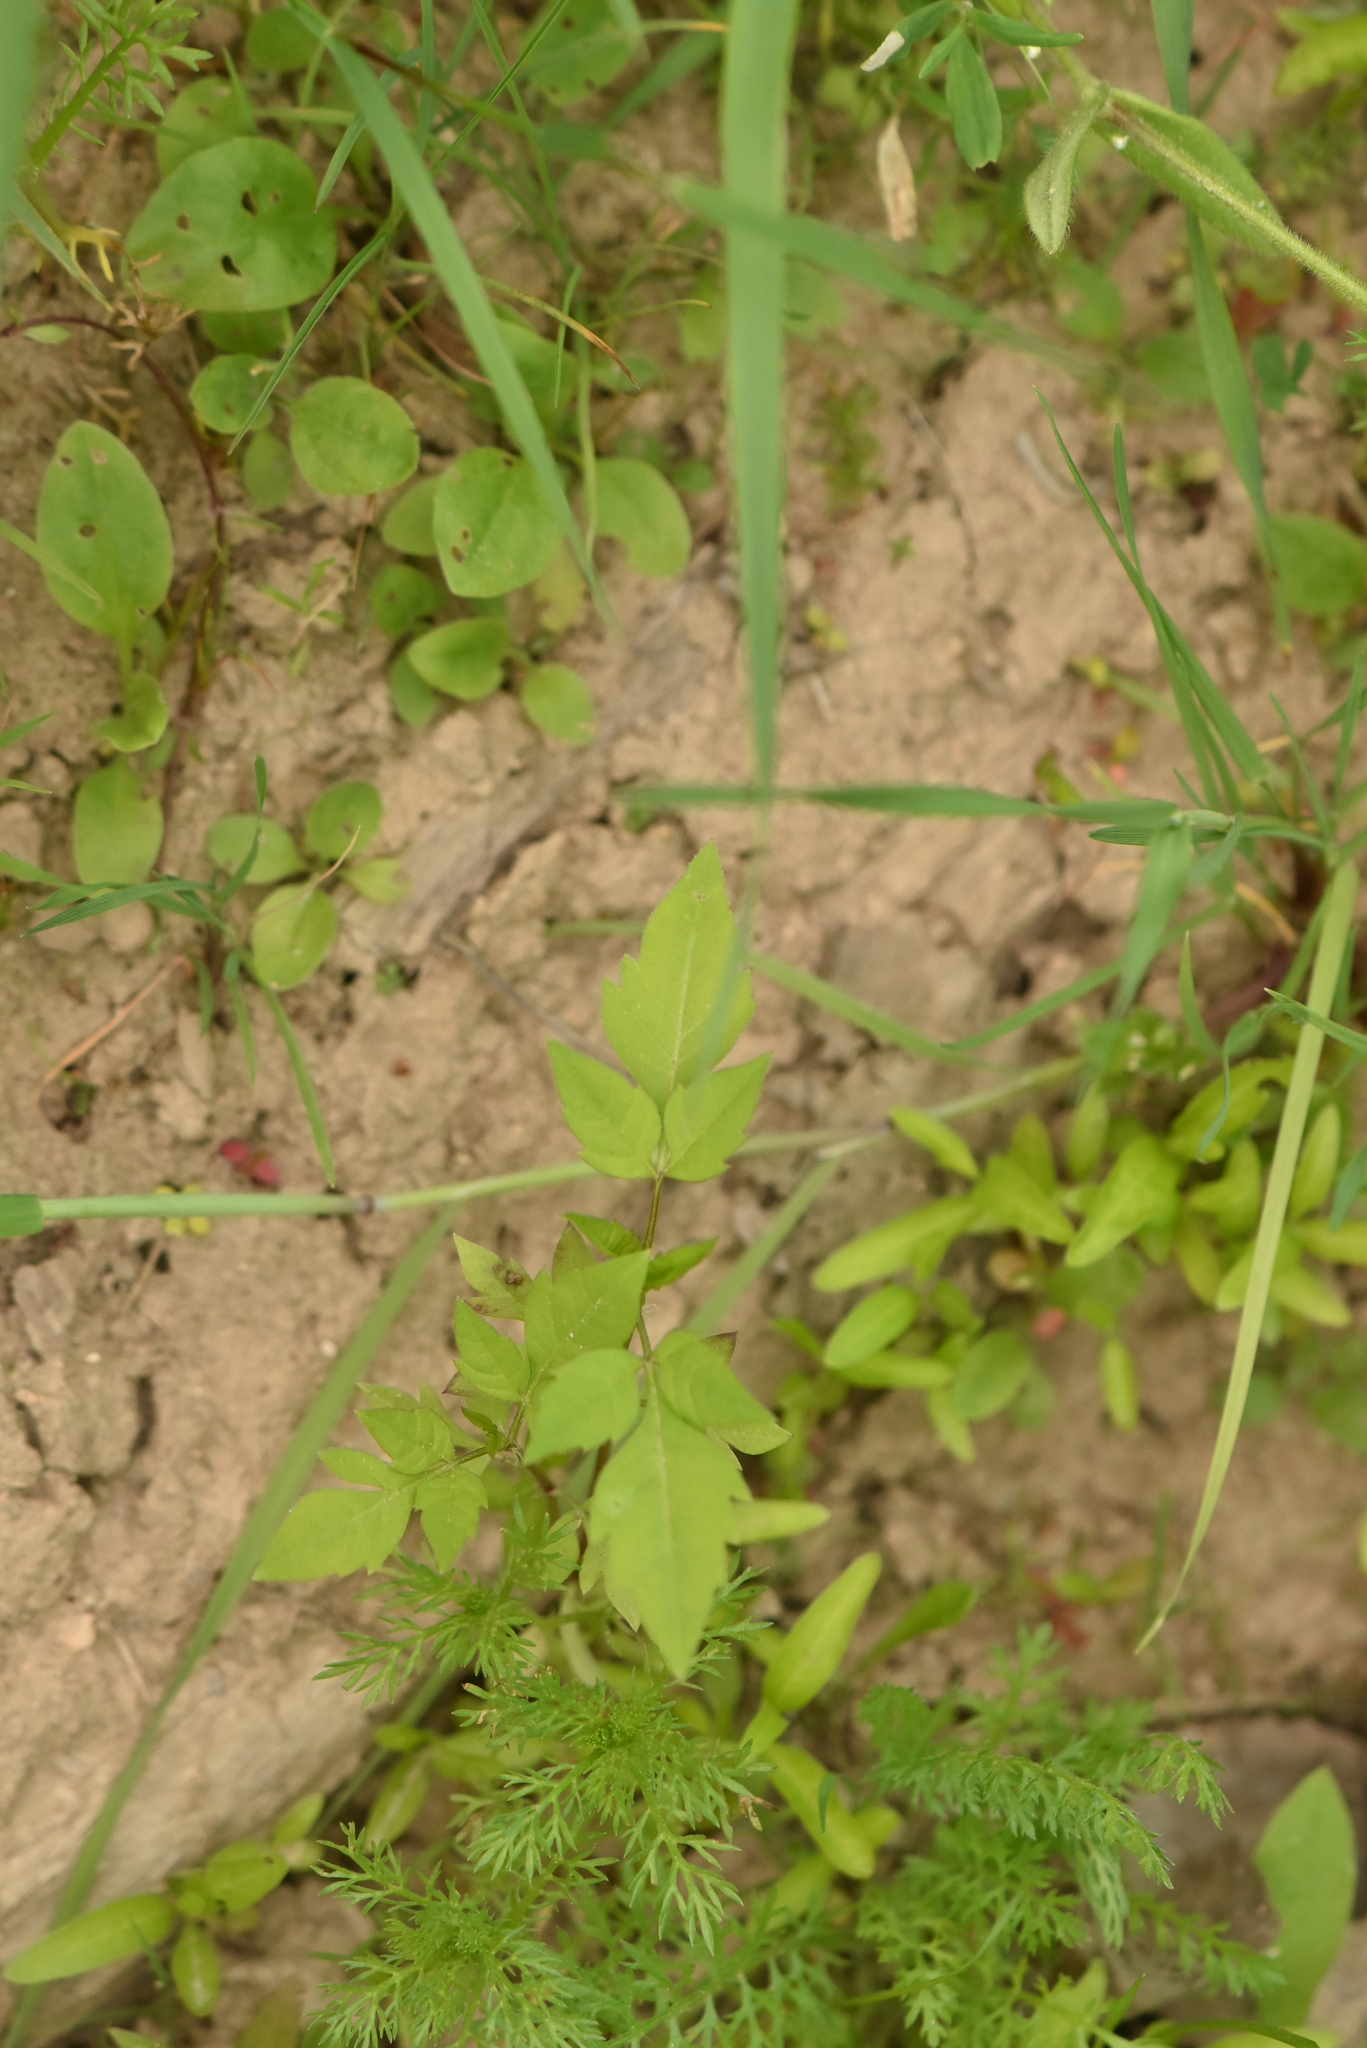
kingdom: Plantae
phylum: Tracheophyta
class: Magnoliopsida
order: Asterales
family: Asteraceae
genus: Bidens
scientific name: Bidens frondosa
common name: Beggarticks
